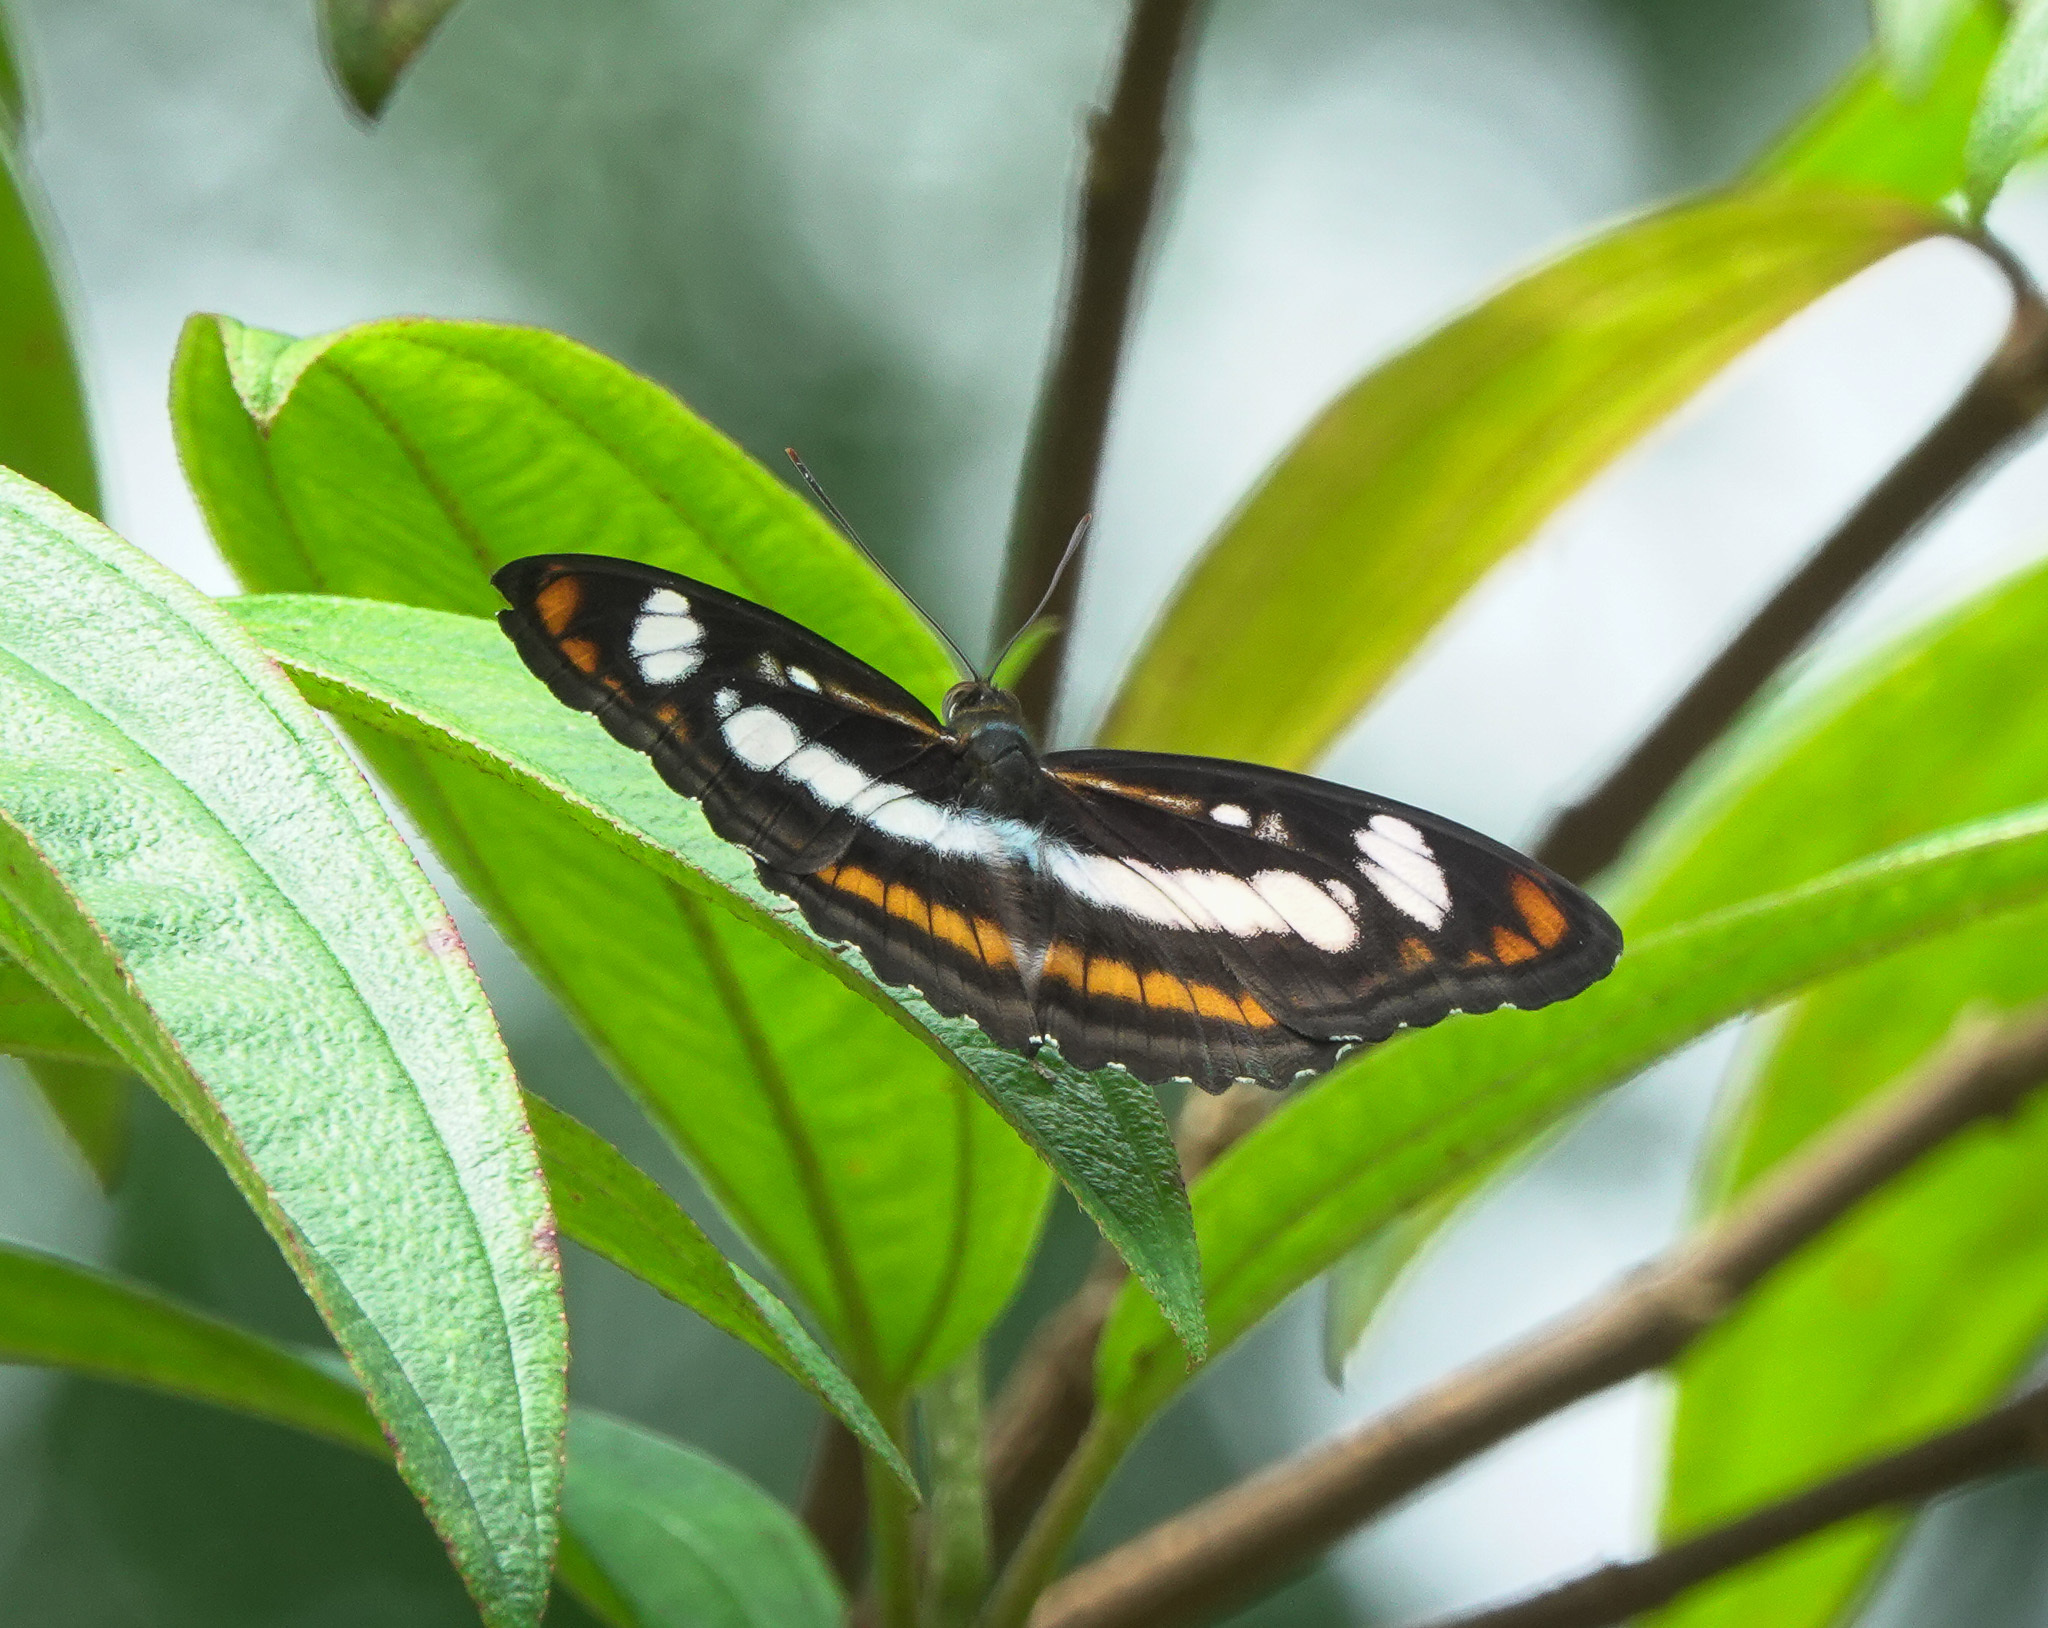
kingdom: Animalia
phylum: Arthropoda
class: Insecta
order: Lepidoptera
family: Nymphalidae
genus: Parathyma
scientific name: Parathyma nefte
